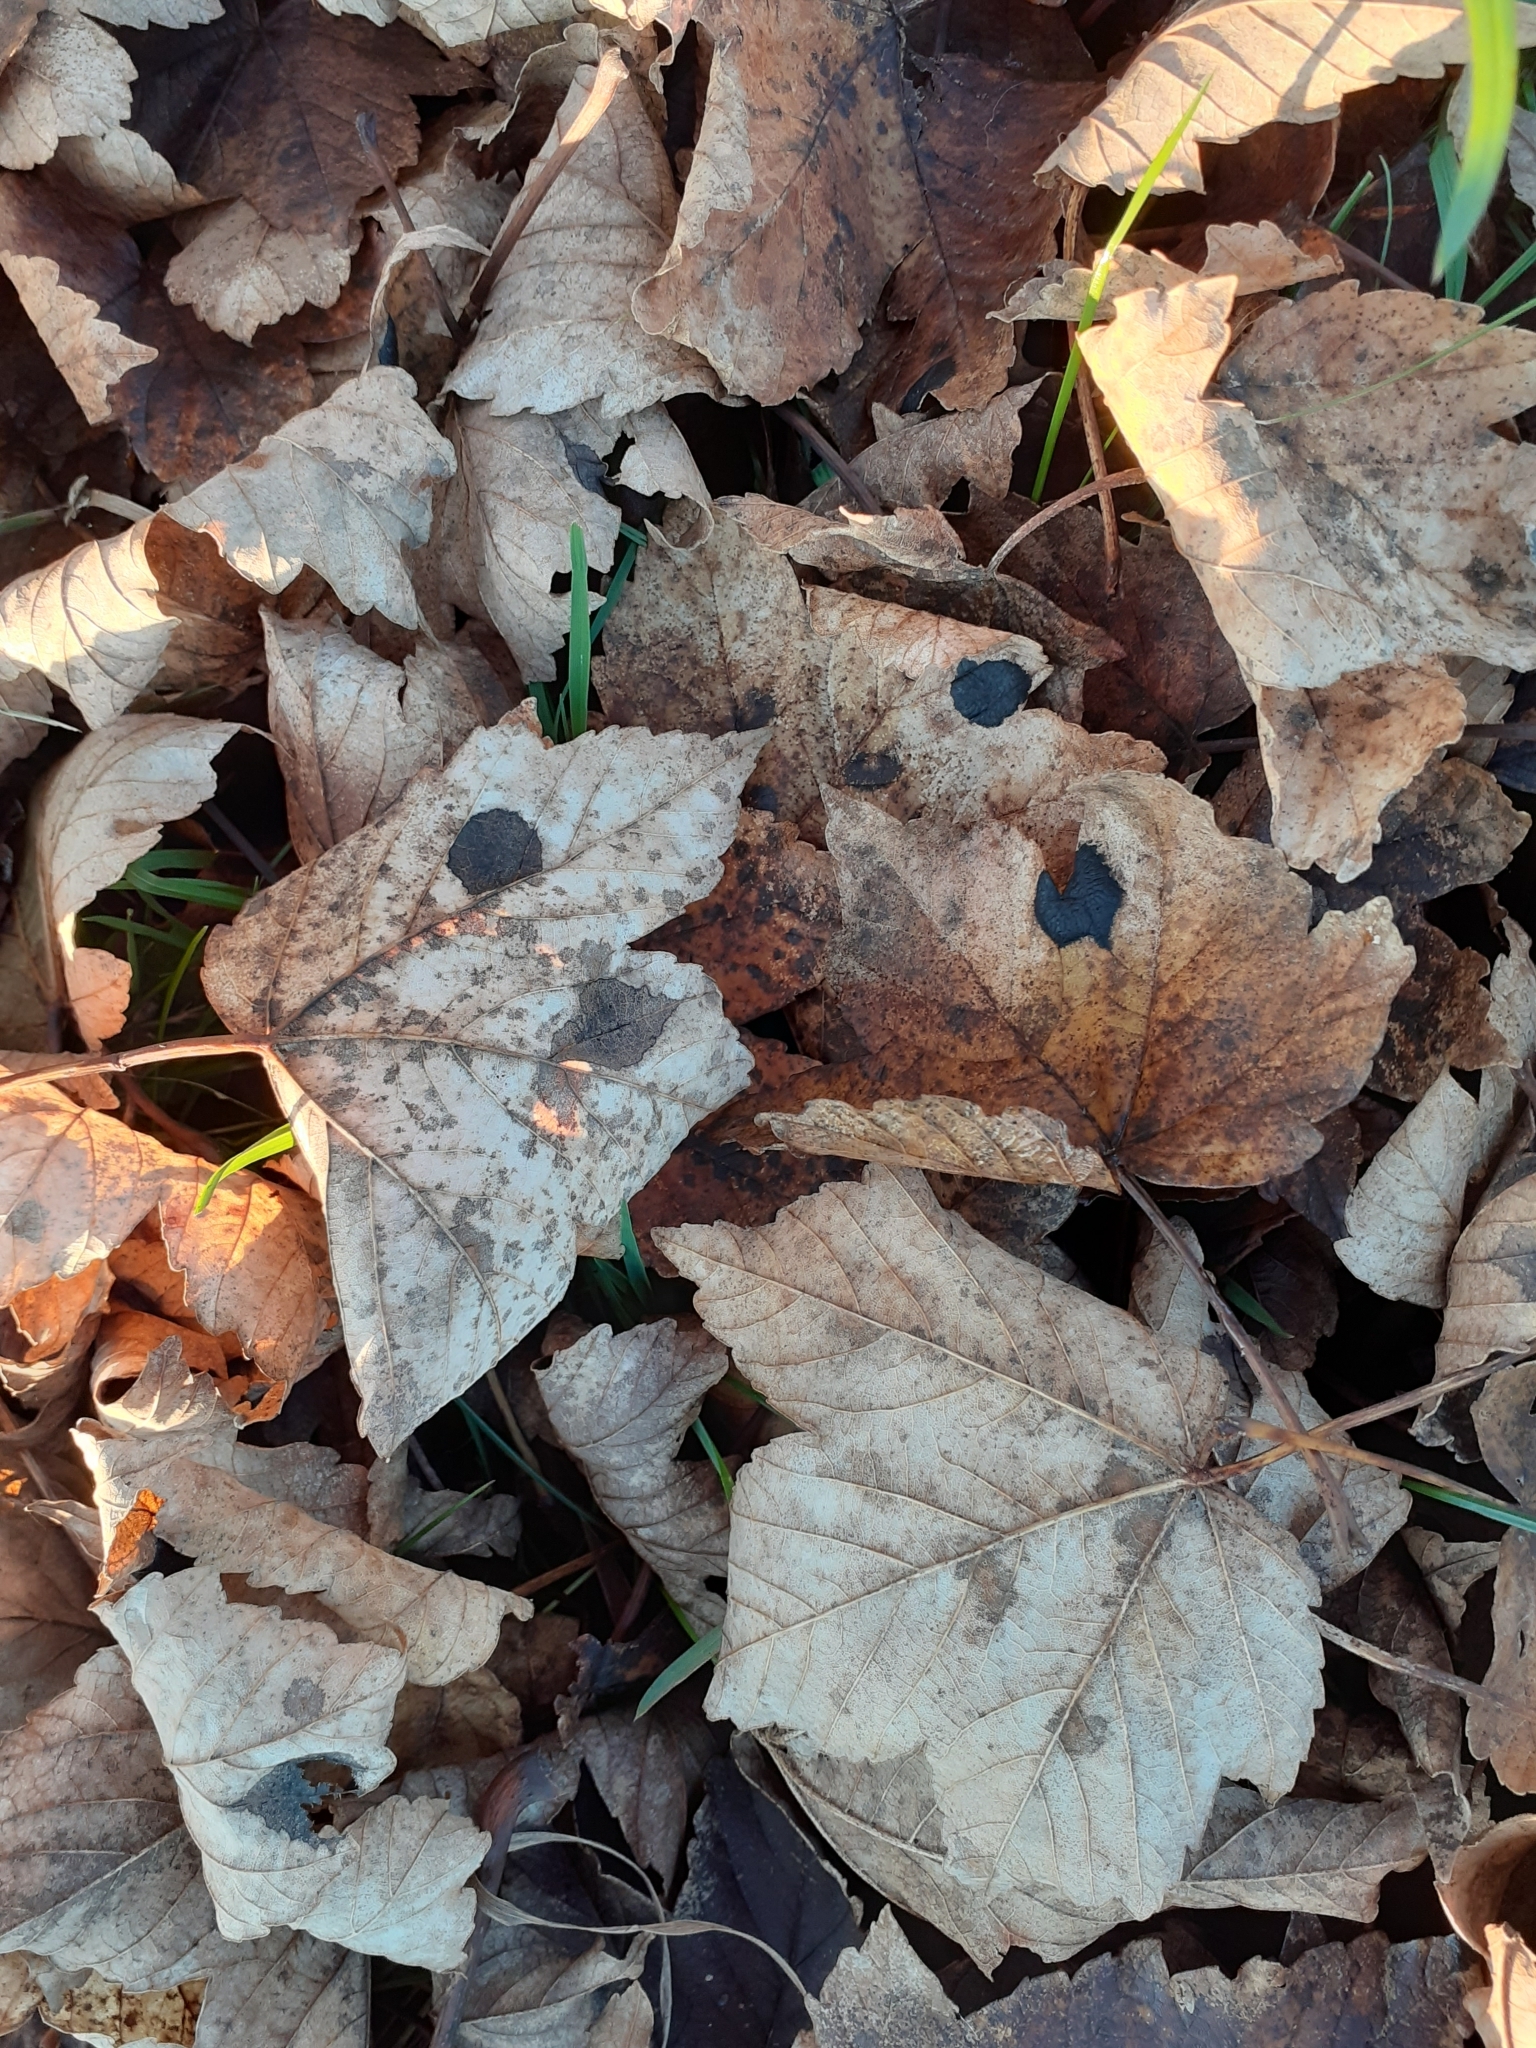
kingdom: Fungi
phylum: Ascomycota
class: Leotiomycetes
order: Rhytismatales
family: Rhytismataceae
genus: Rhytisma
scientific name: Rhytisma acerinum
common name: European tar spot
